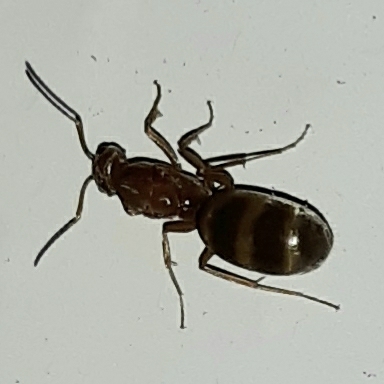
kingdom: Animalia
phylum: Arthropoda
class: Insecta
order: Hymenoptera
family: Formicidae
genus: Dorymyrmex
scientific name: Dorymyrmex bureni
